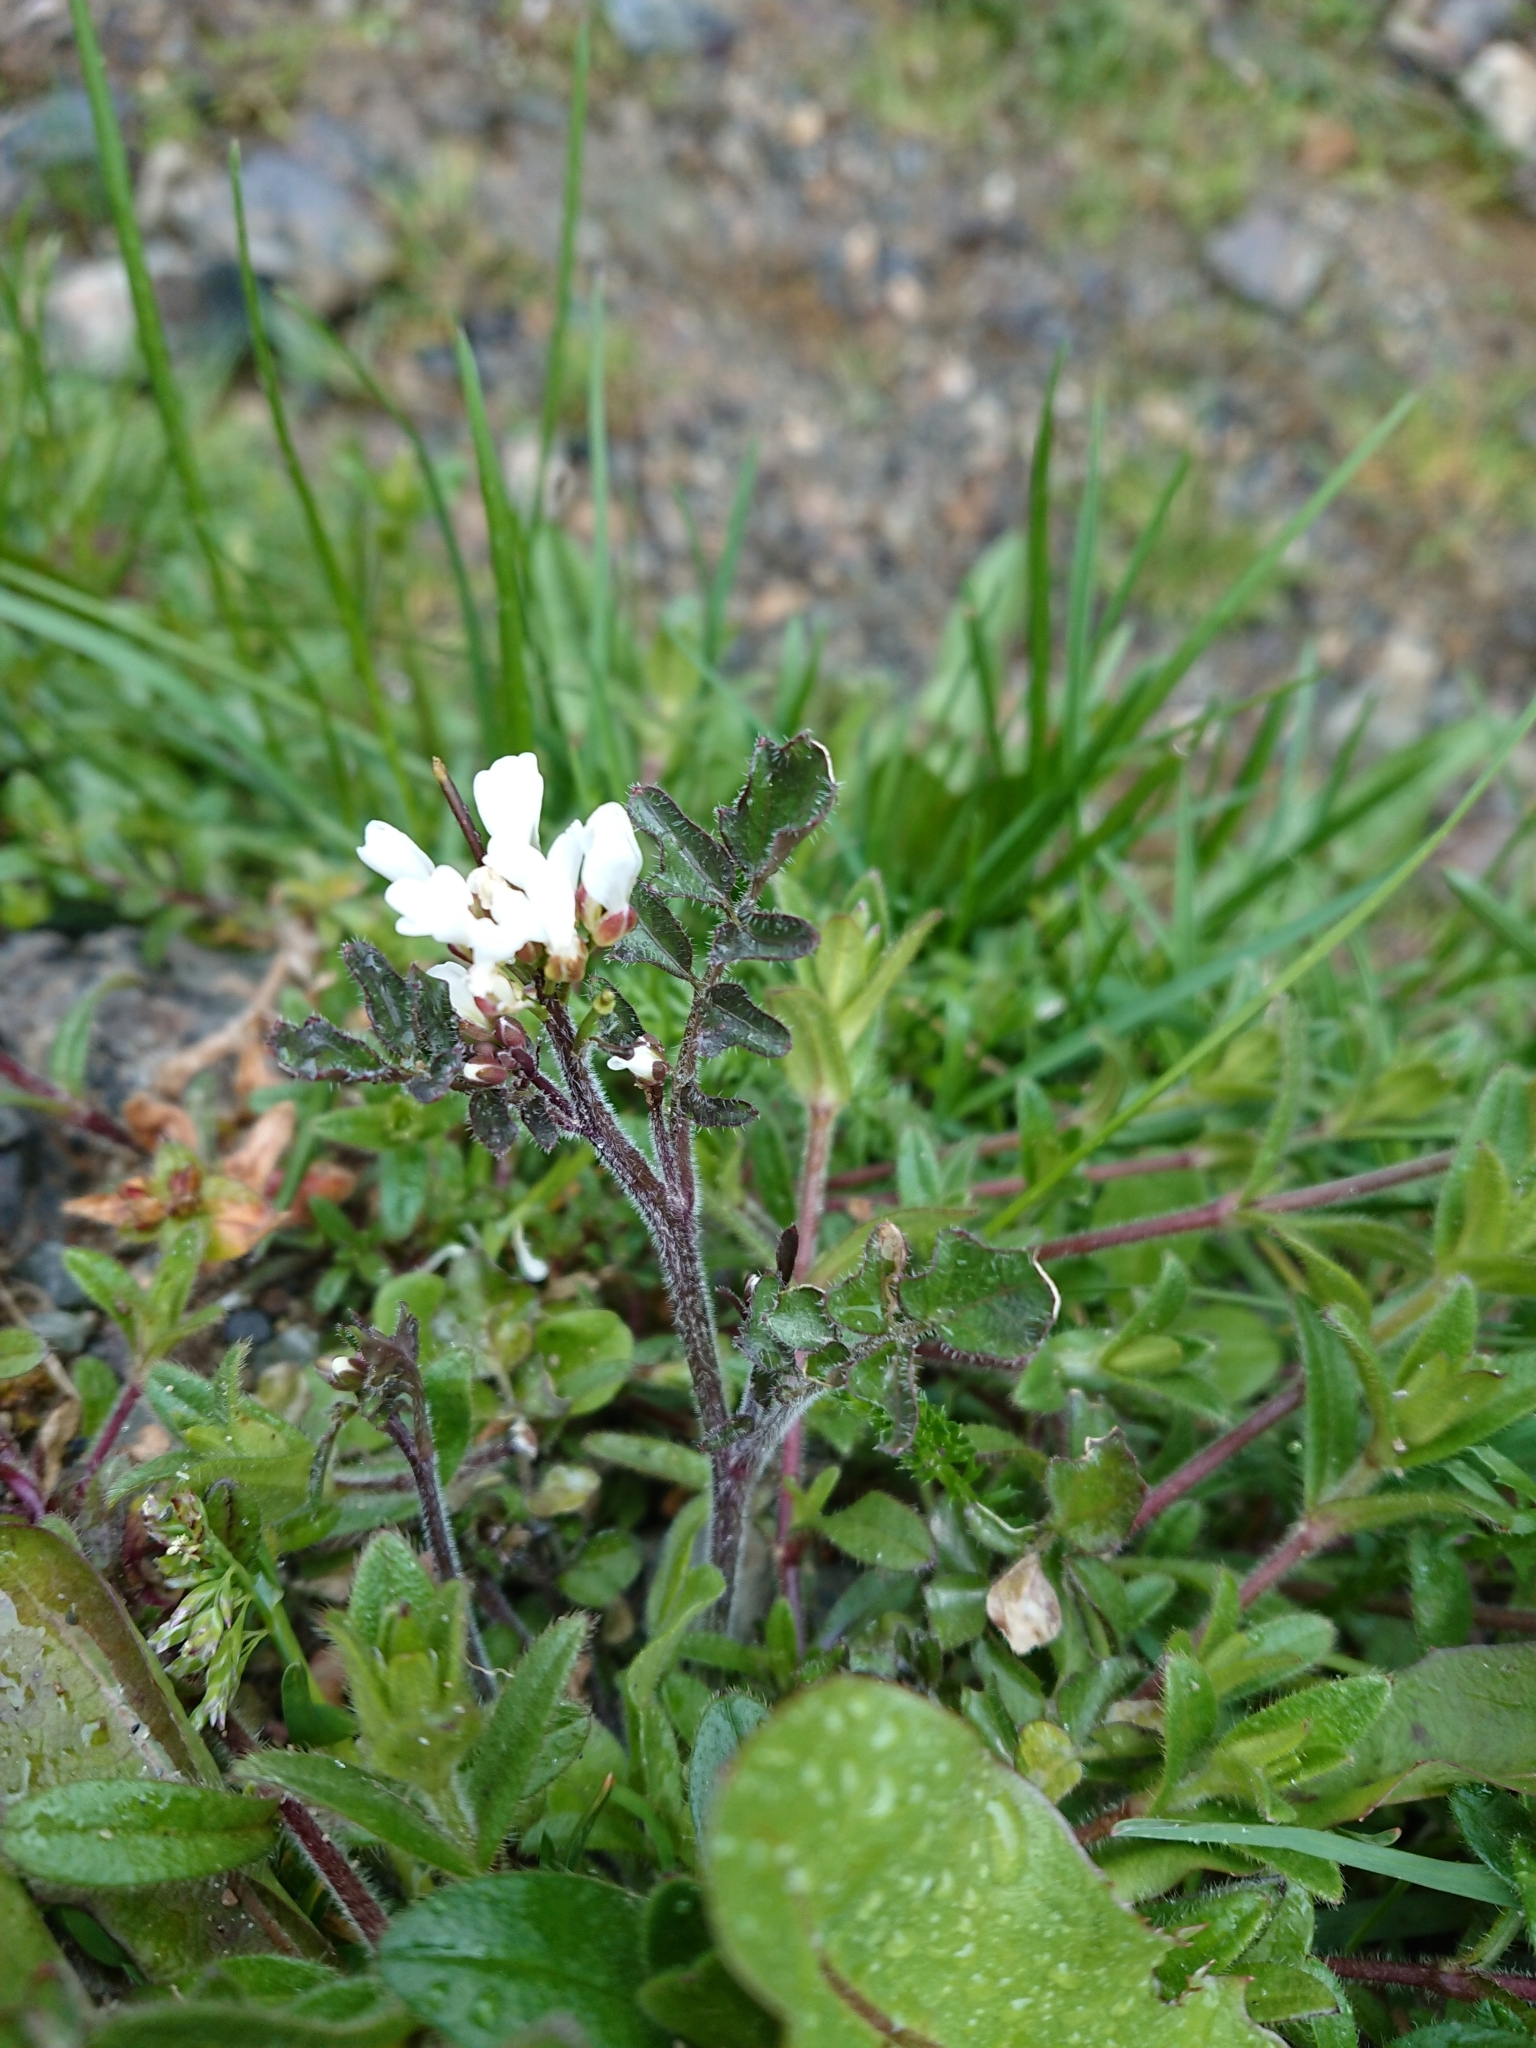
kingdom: Plantae
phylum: Tracheophyta
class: Magnoliopsida
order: Brassicales
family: Brassicaceae
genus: Cardamine
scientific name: Cardamine glacialis
